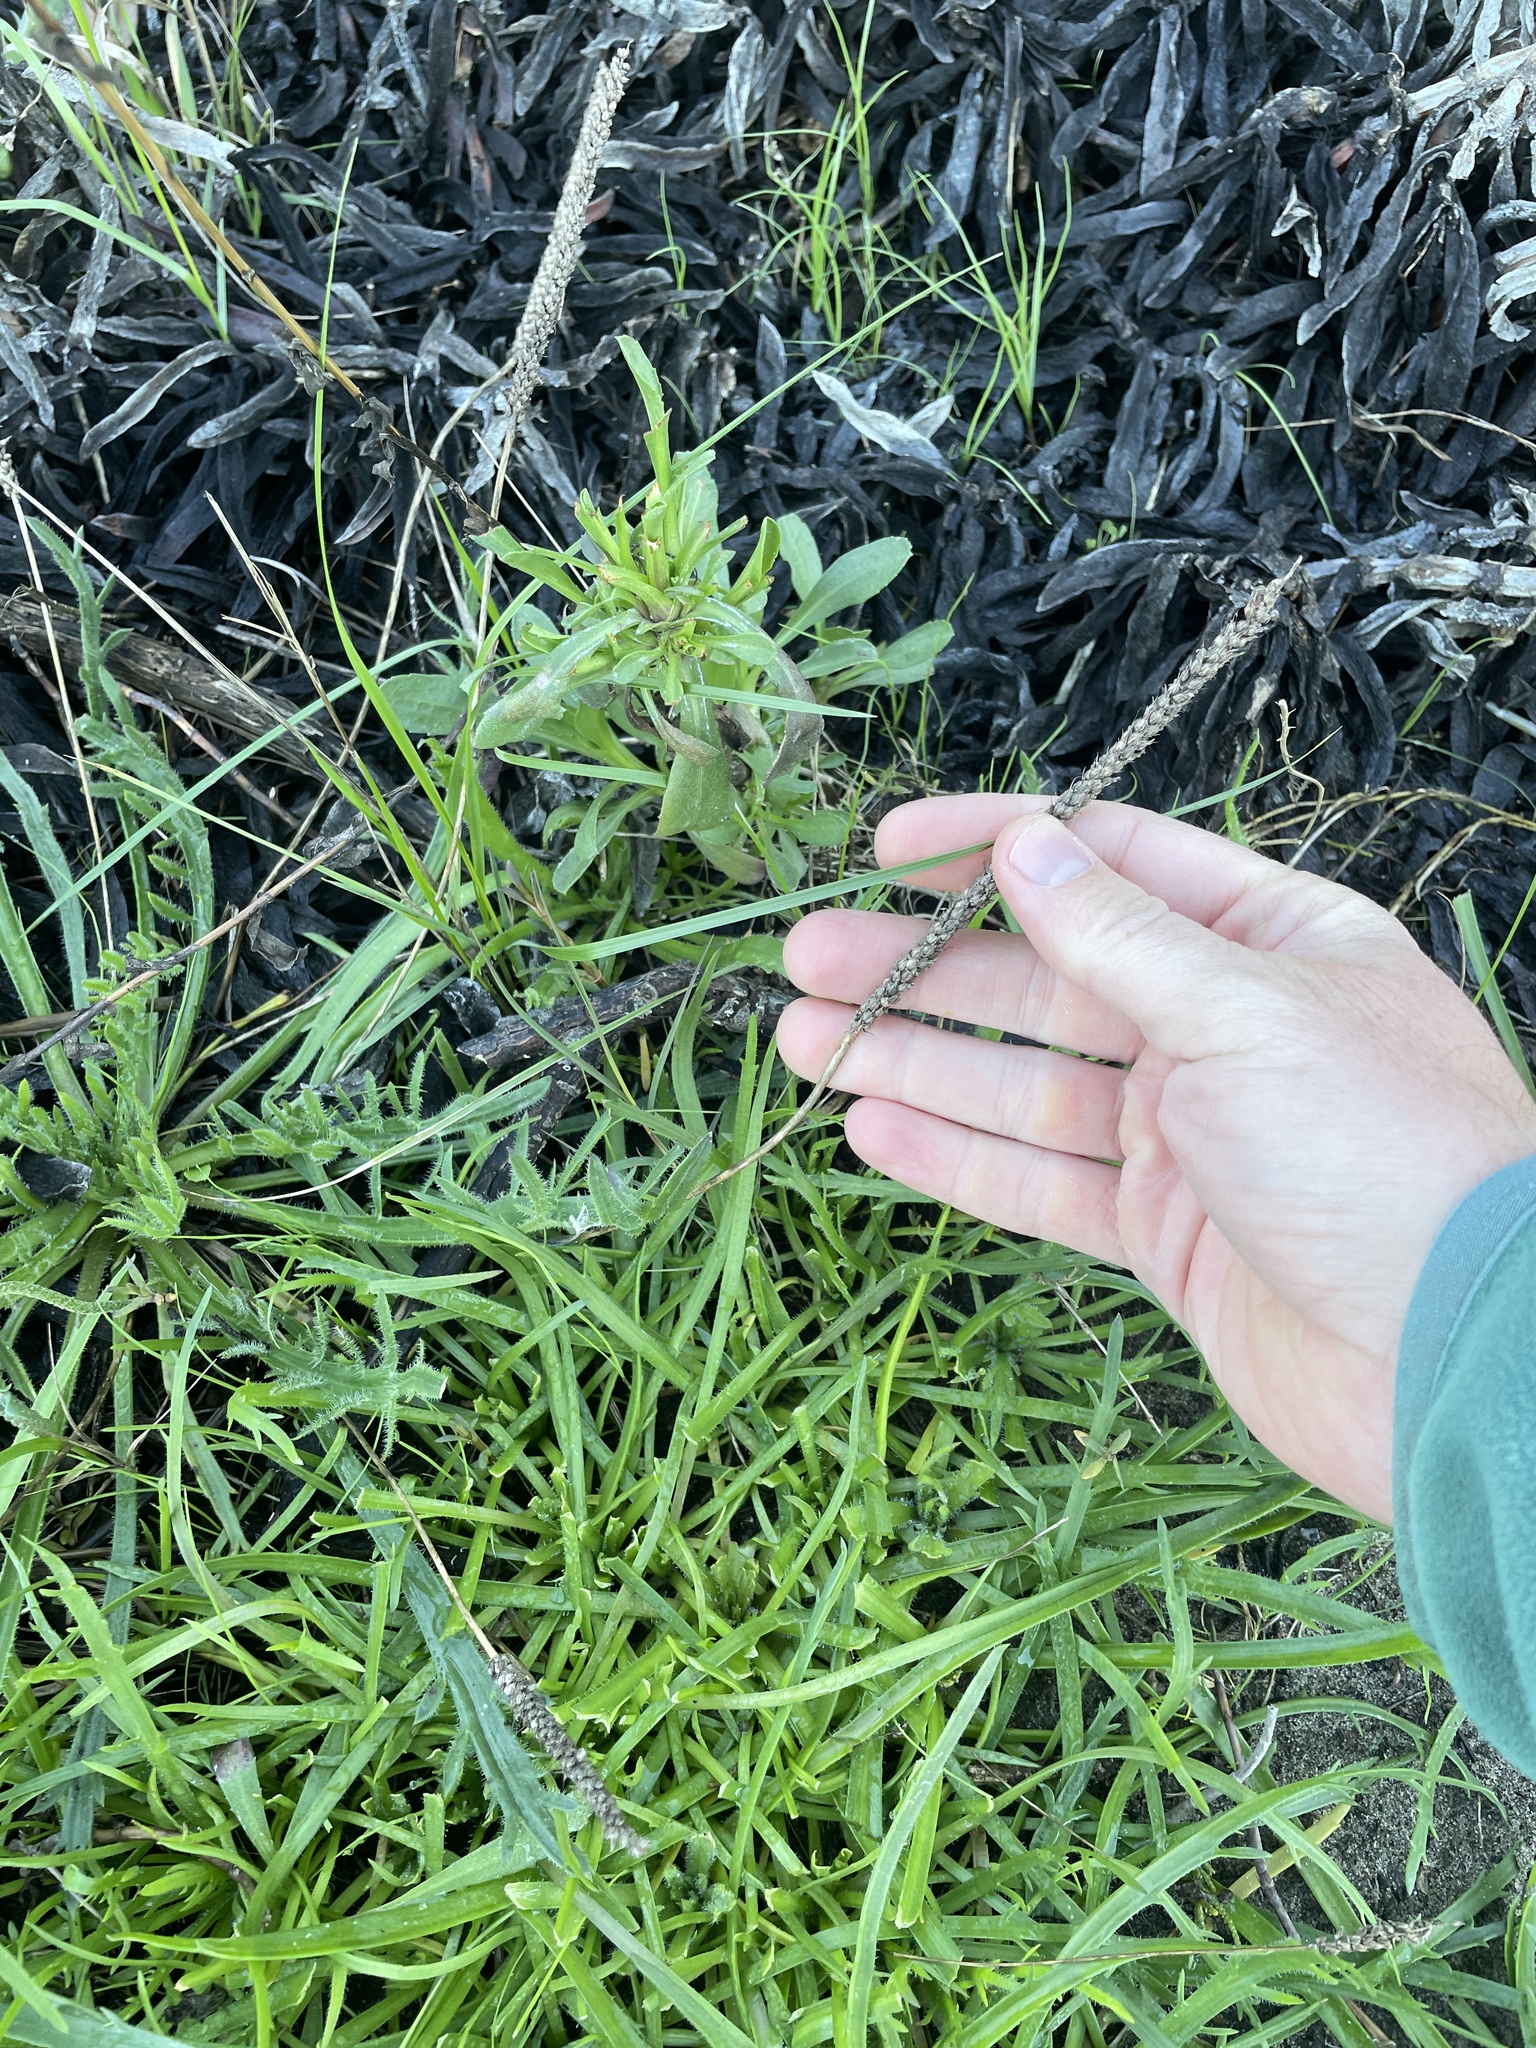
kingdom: Plantae
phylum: Tracheophyta
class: Magnoliopsida
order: Lamiales
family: Plantaginaceae
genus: Plantago
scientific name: Plantago coronopus
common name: Buck's-horn plantain
